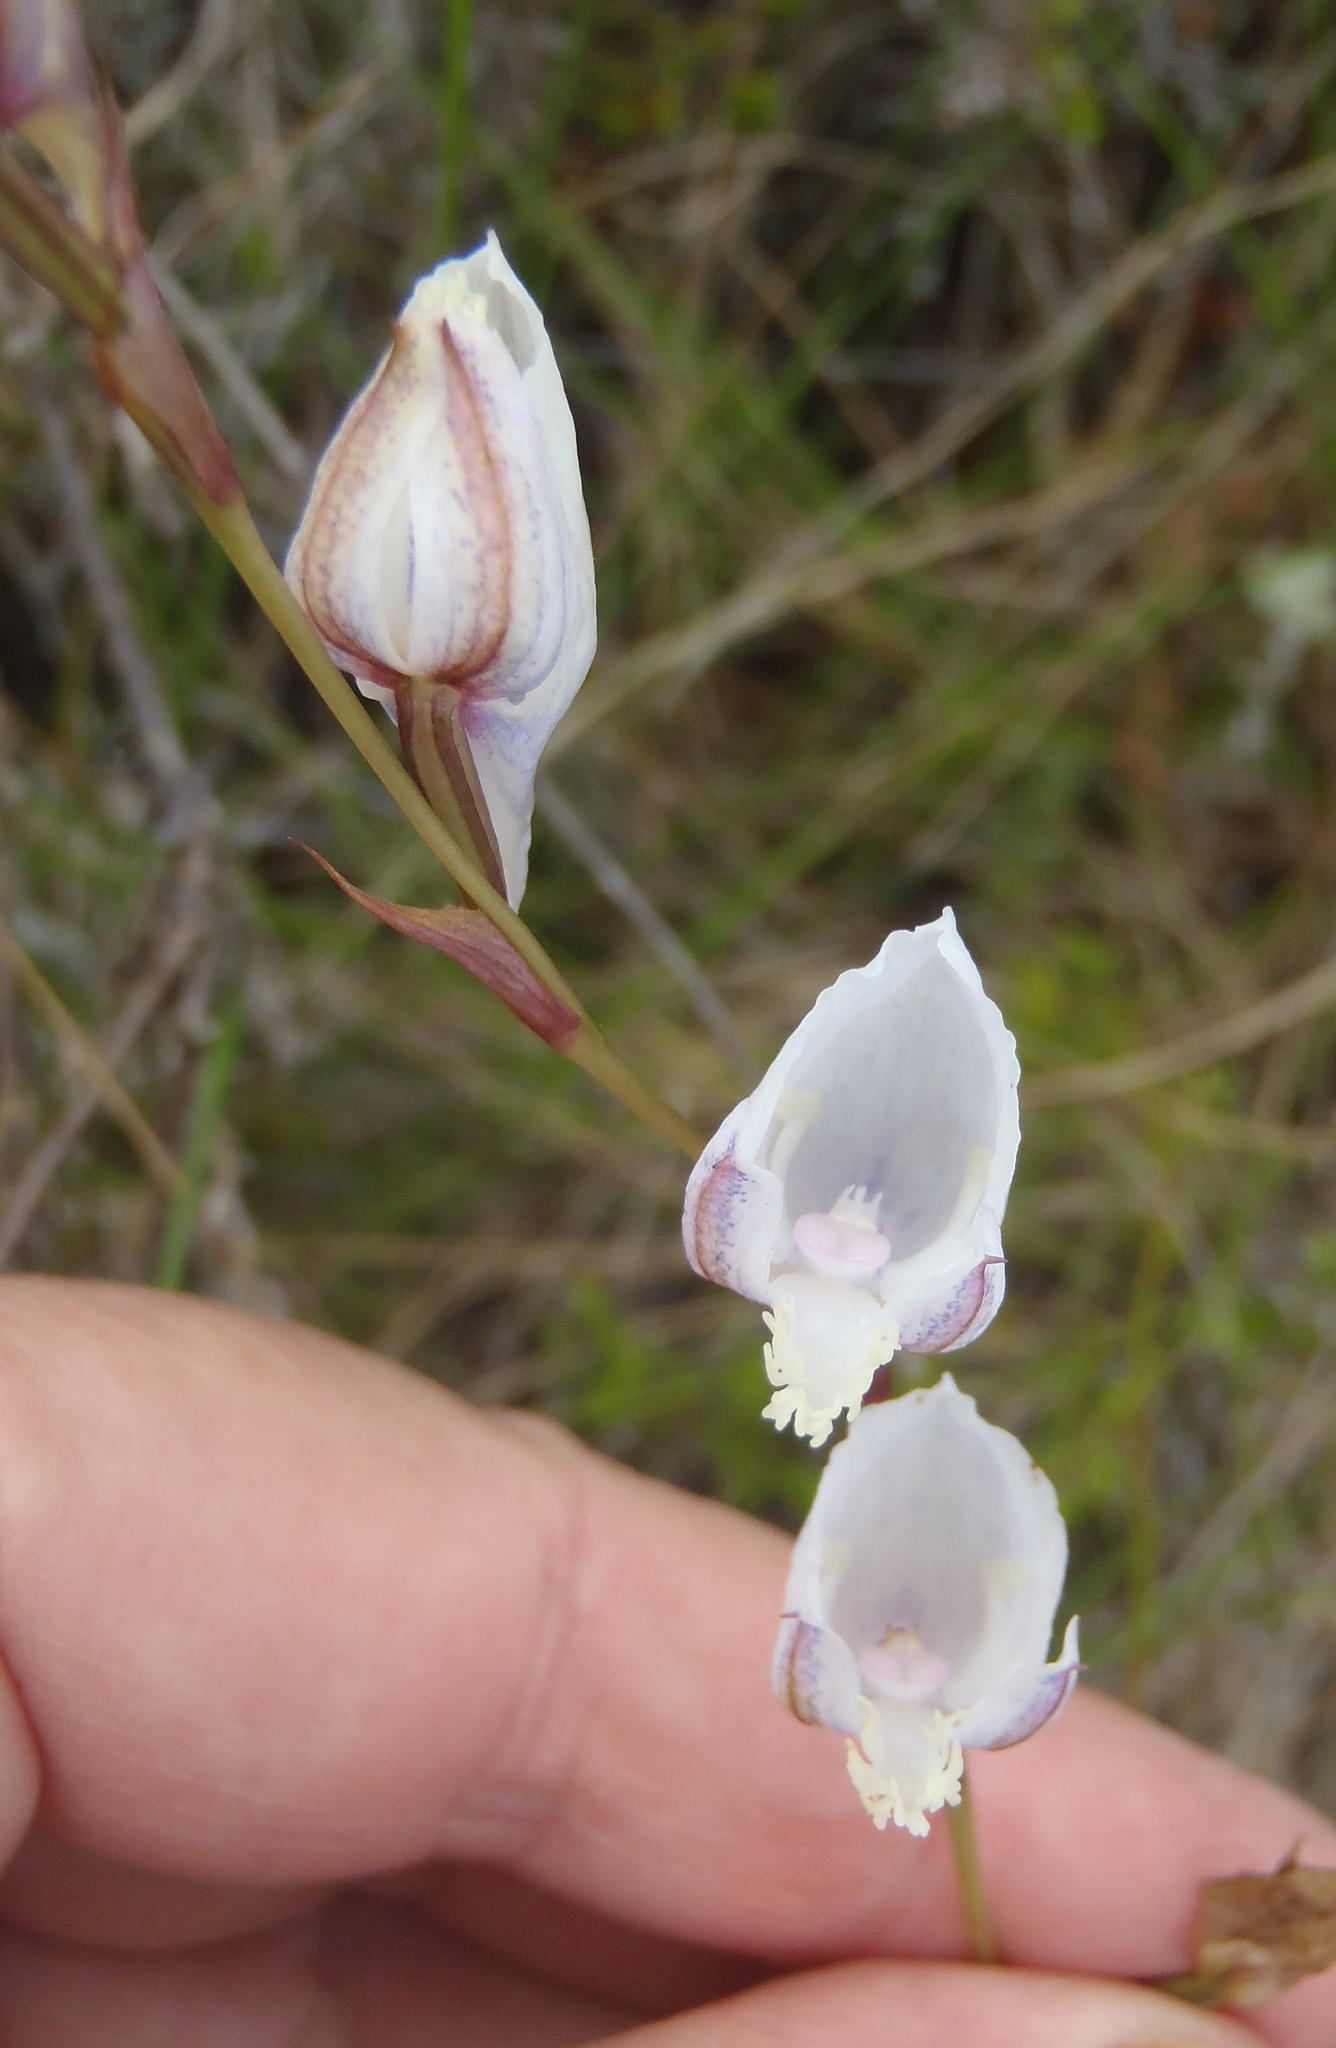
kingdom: Plantae
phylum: Tracheophyta
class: Liliopsida
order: Asparagales
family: Orchidaceae
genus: Disa
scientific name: Disa hians
